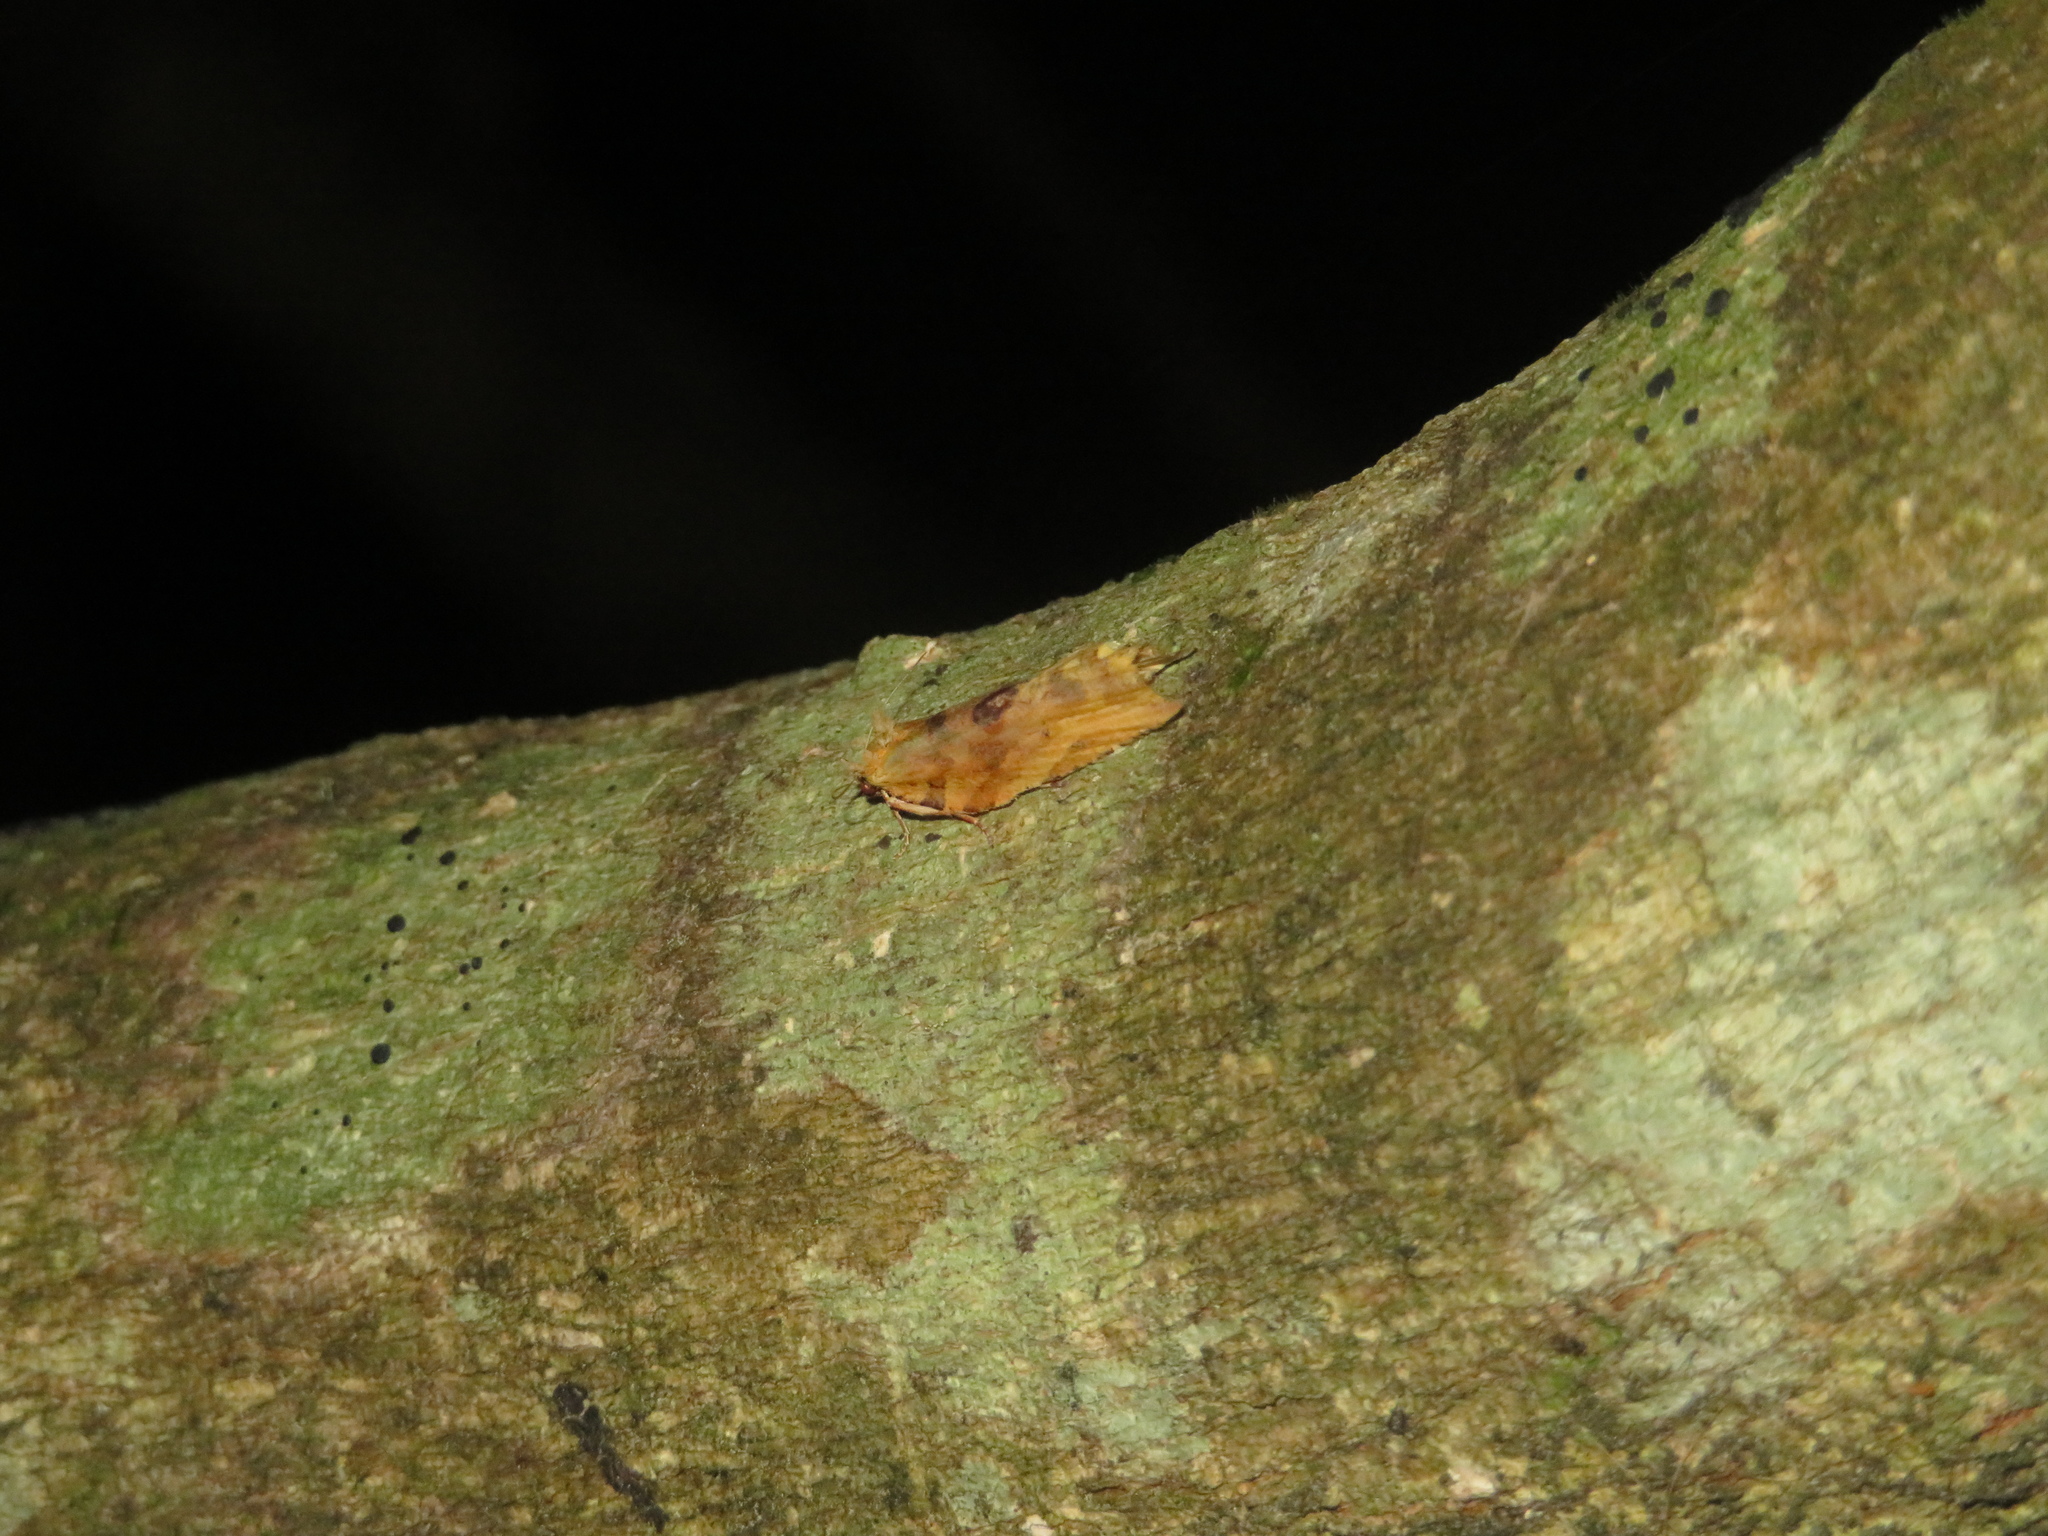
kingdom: Animalia
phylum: Arthropoda
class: Insecta
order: Lepidoptera
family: Tortricidae
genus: Epalxiphora
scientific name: Epalxiphora axenana
